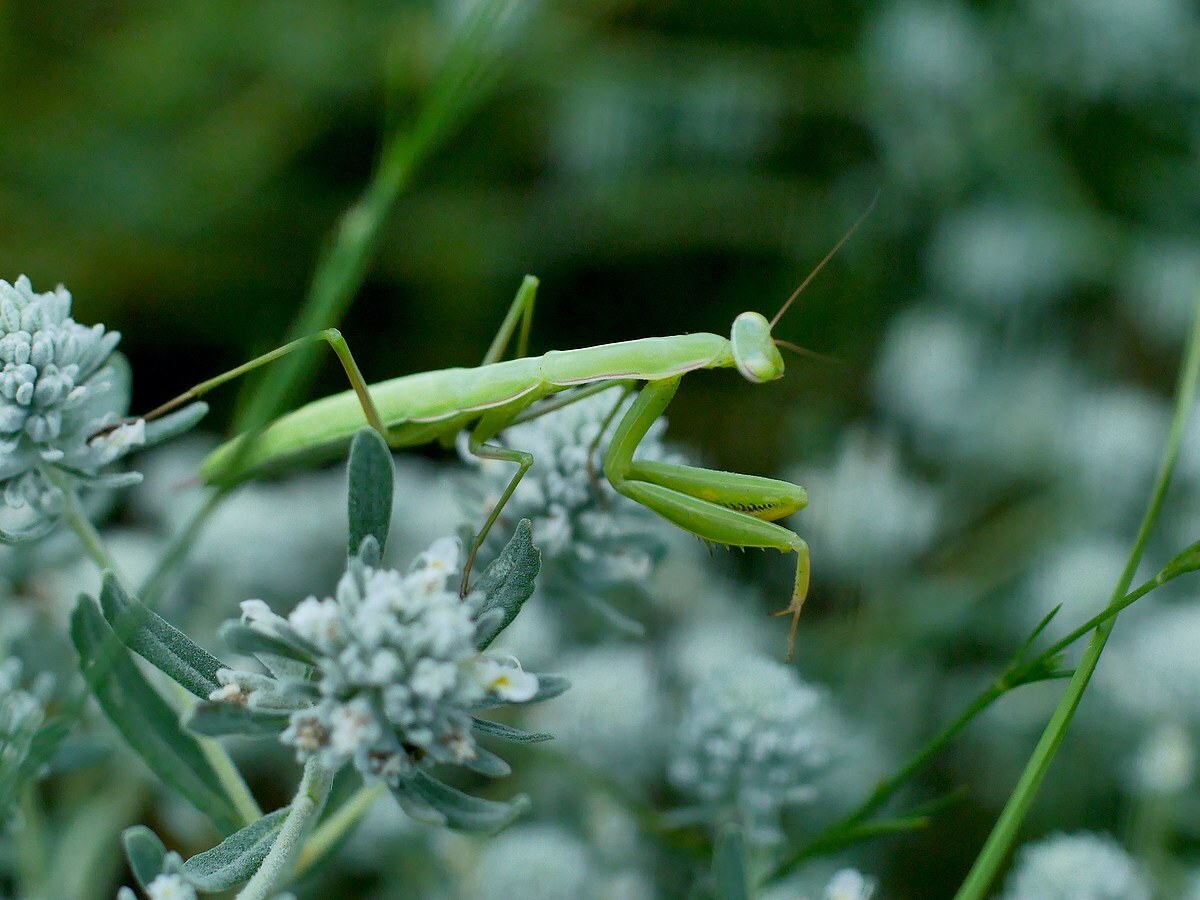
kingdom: Animalia
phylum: Arthropoda
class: Insecta
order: Mantodea
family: Mantidae
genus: Mantis
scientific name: Mantis religiosa
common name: Praying mantis
